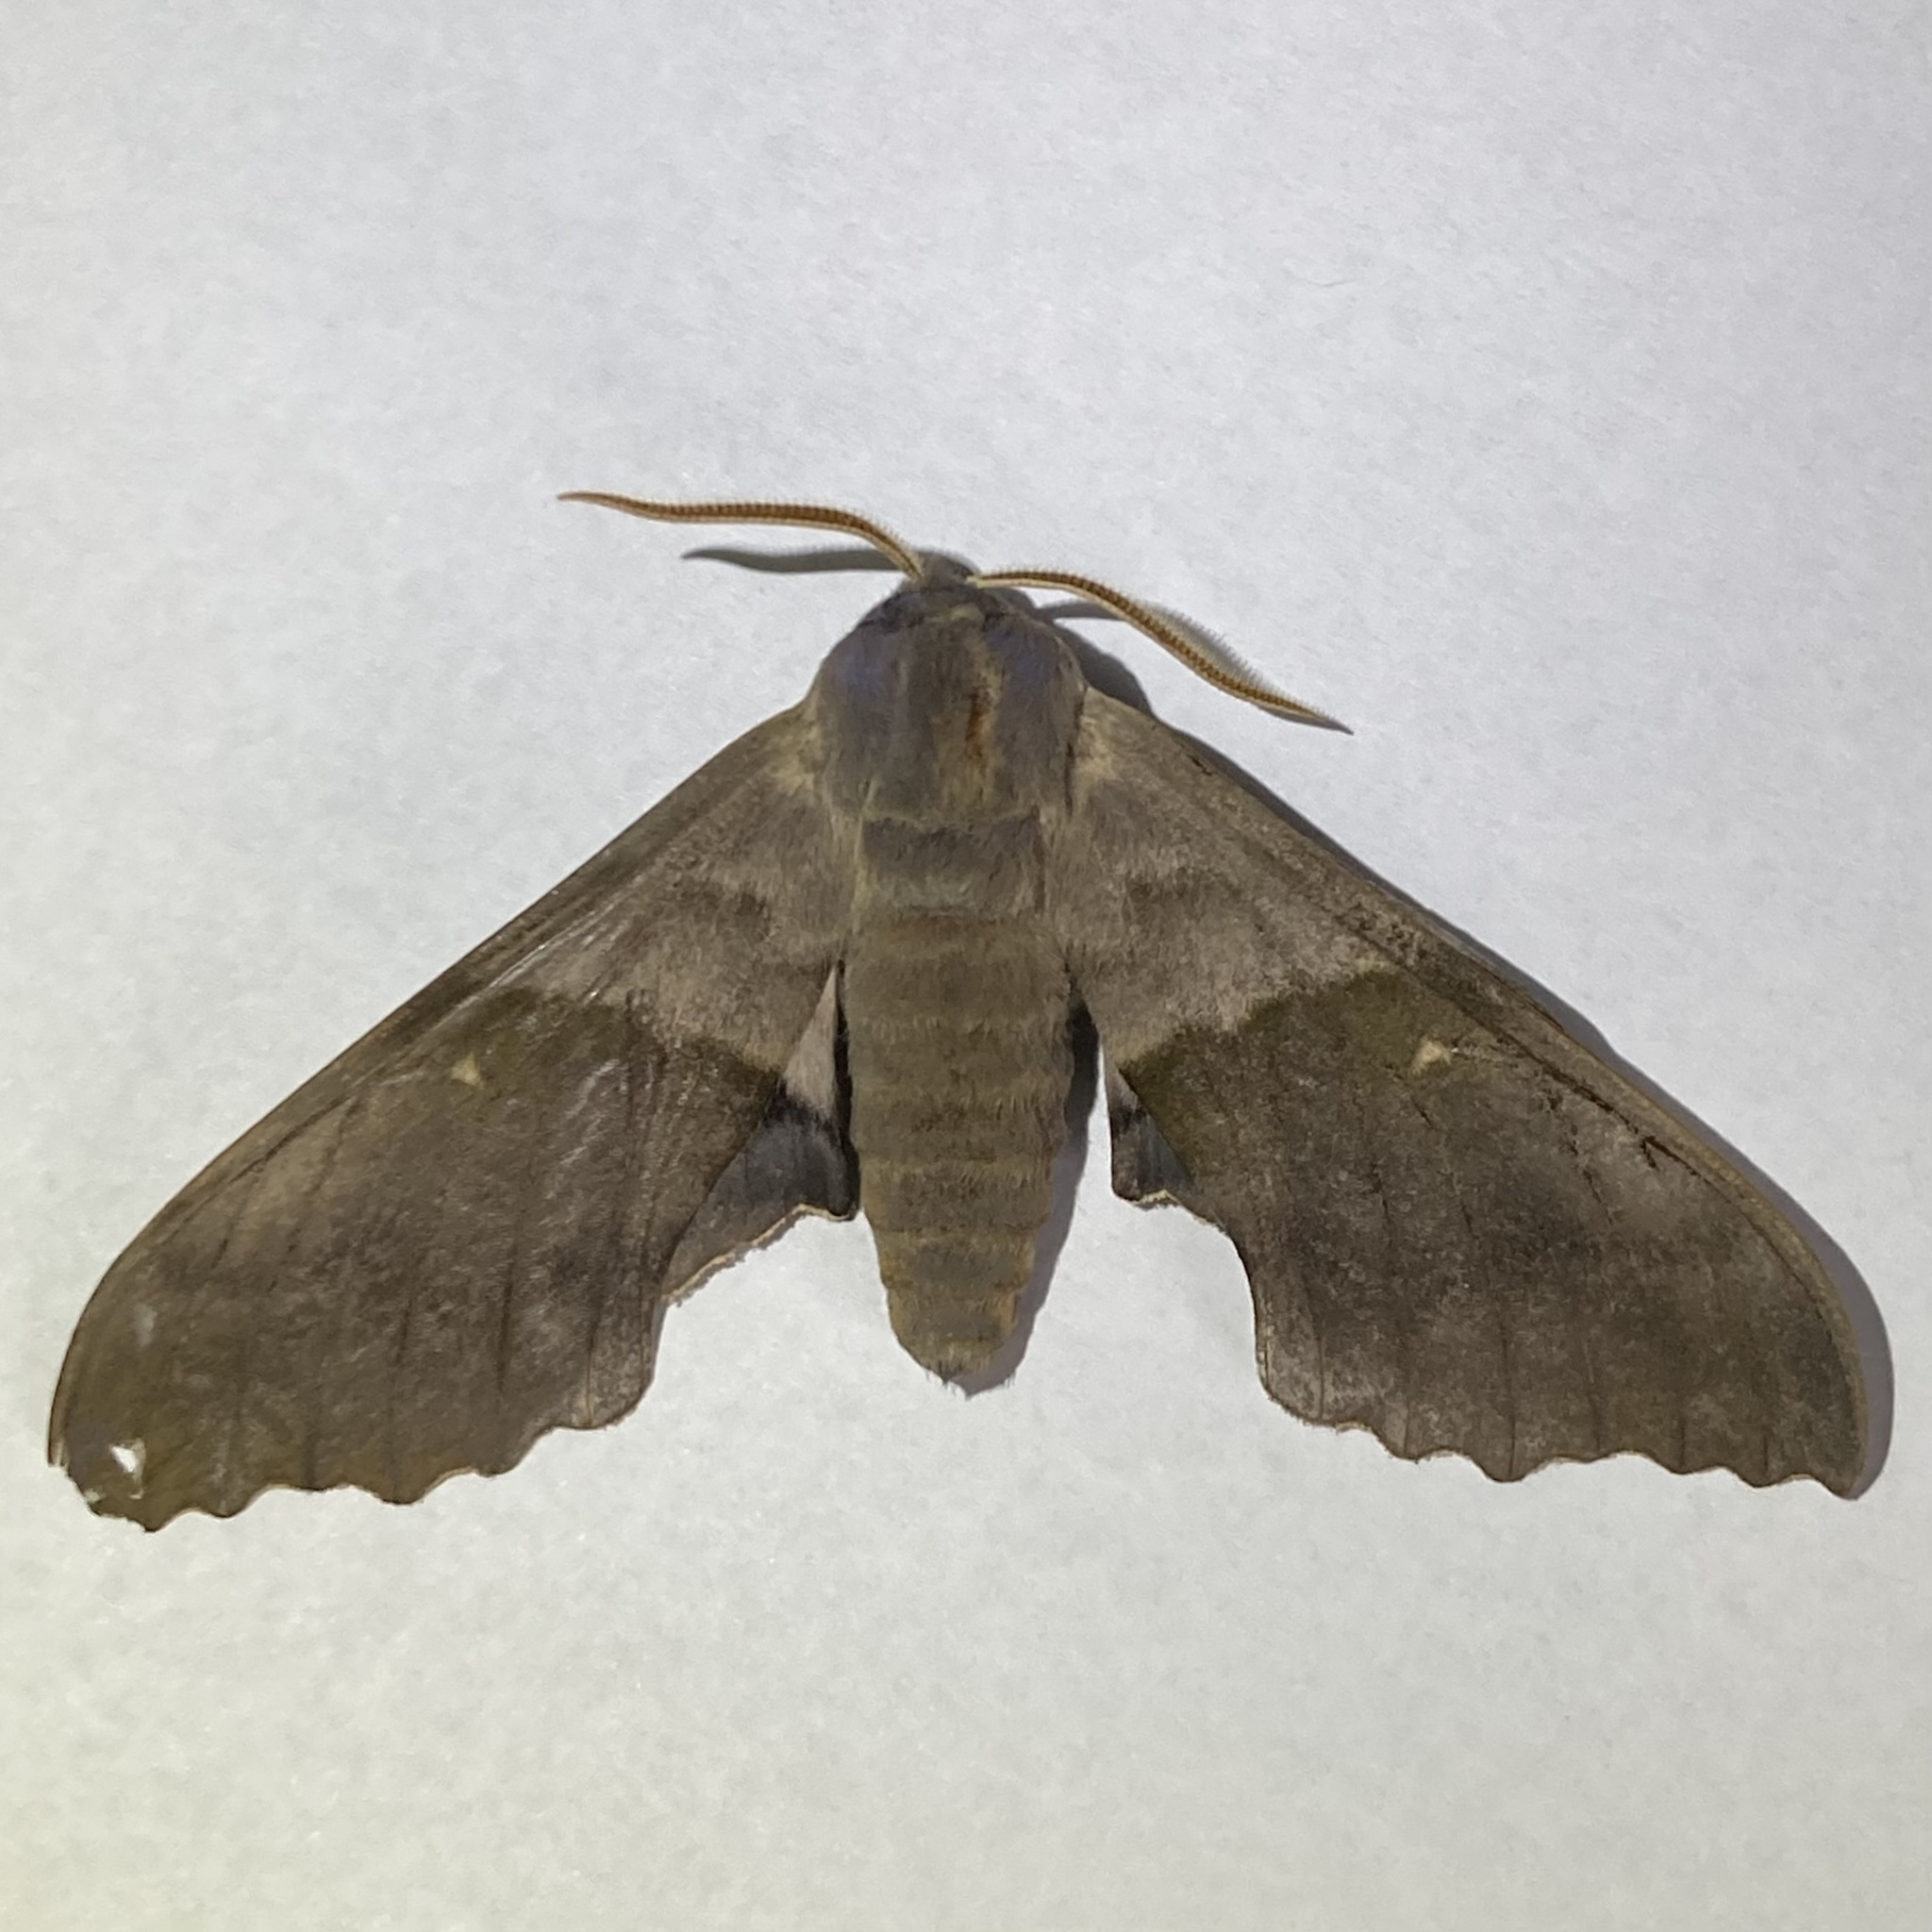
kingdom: Animalia
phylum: Arthropoda
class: Insecta
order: Lepidoptera
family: Sphingidae
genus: Pachysphinx
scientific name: Pachysphinx modesta
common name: Big poplar sphinx
